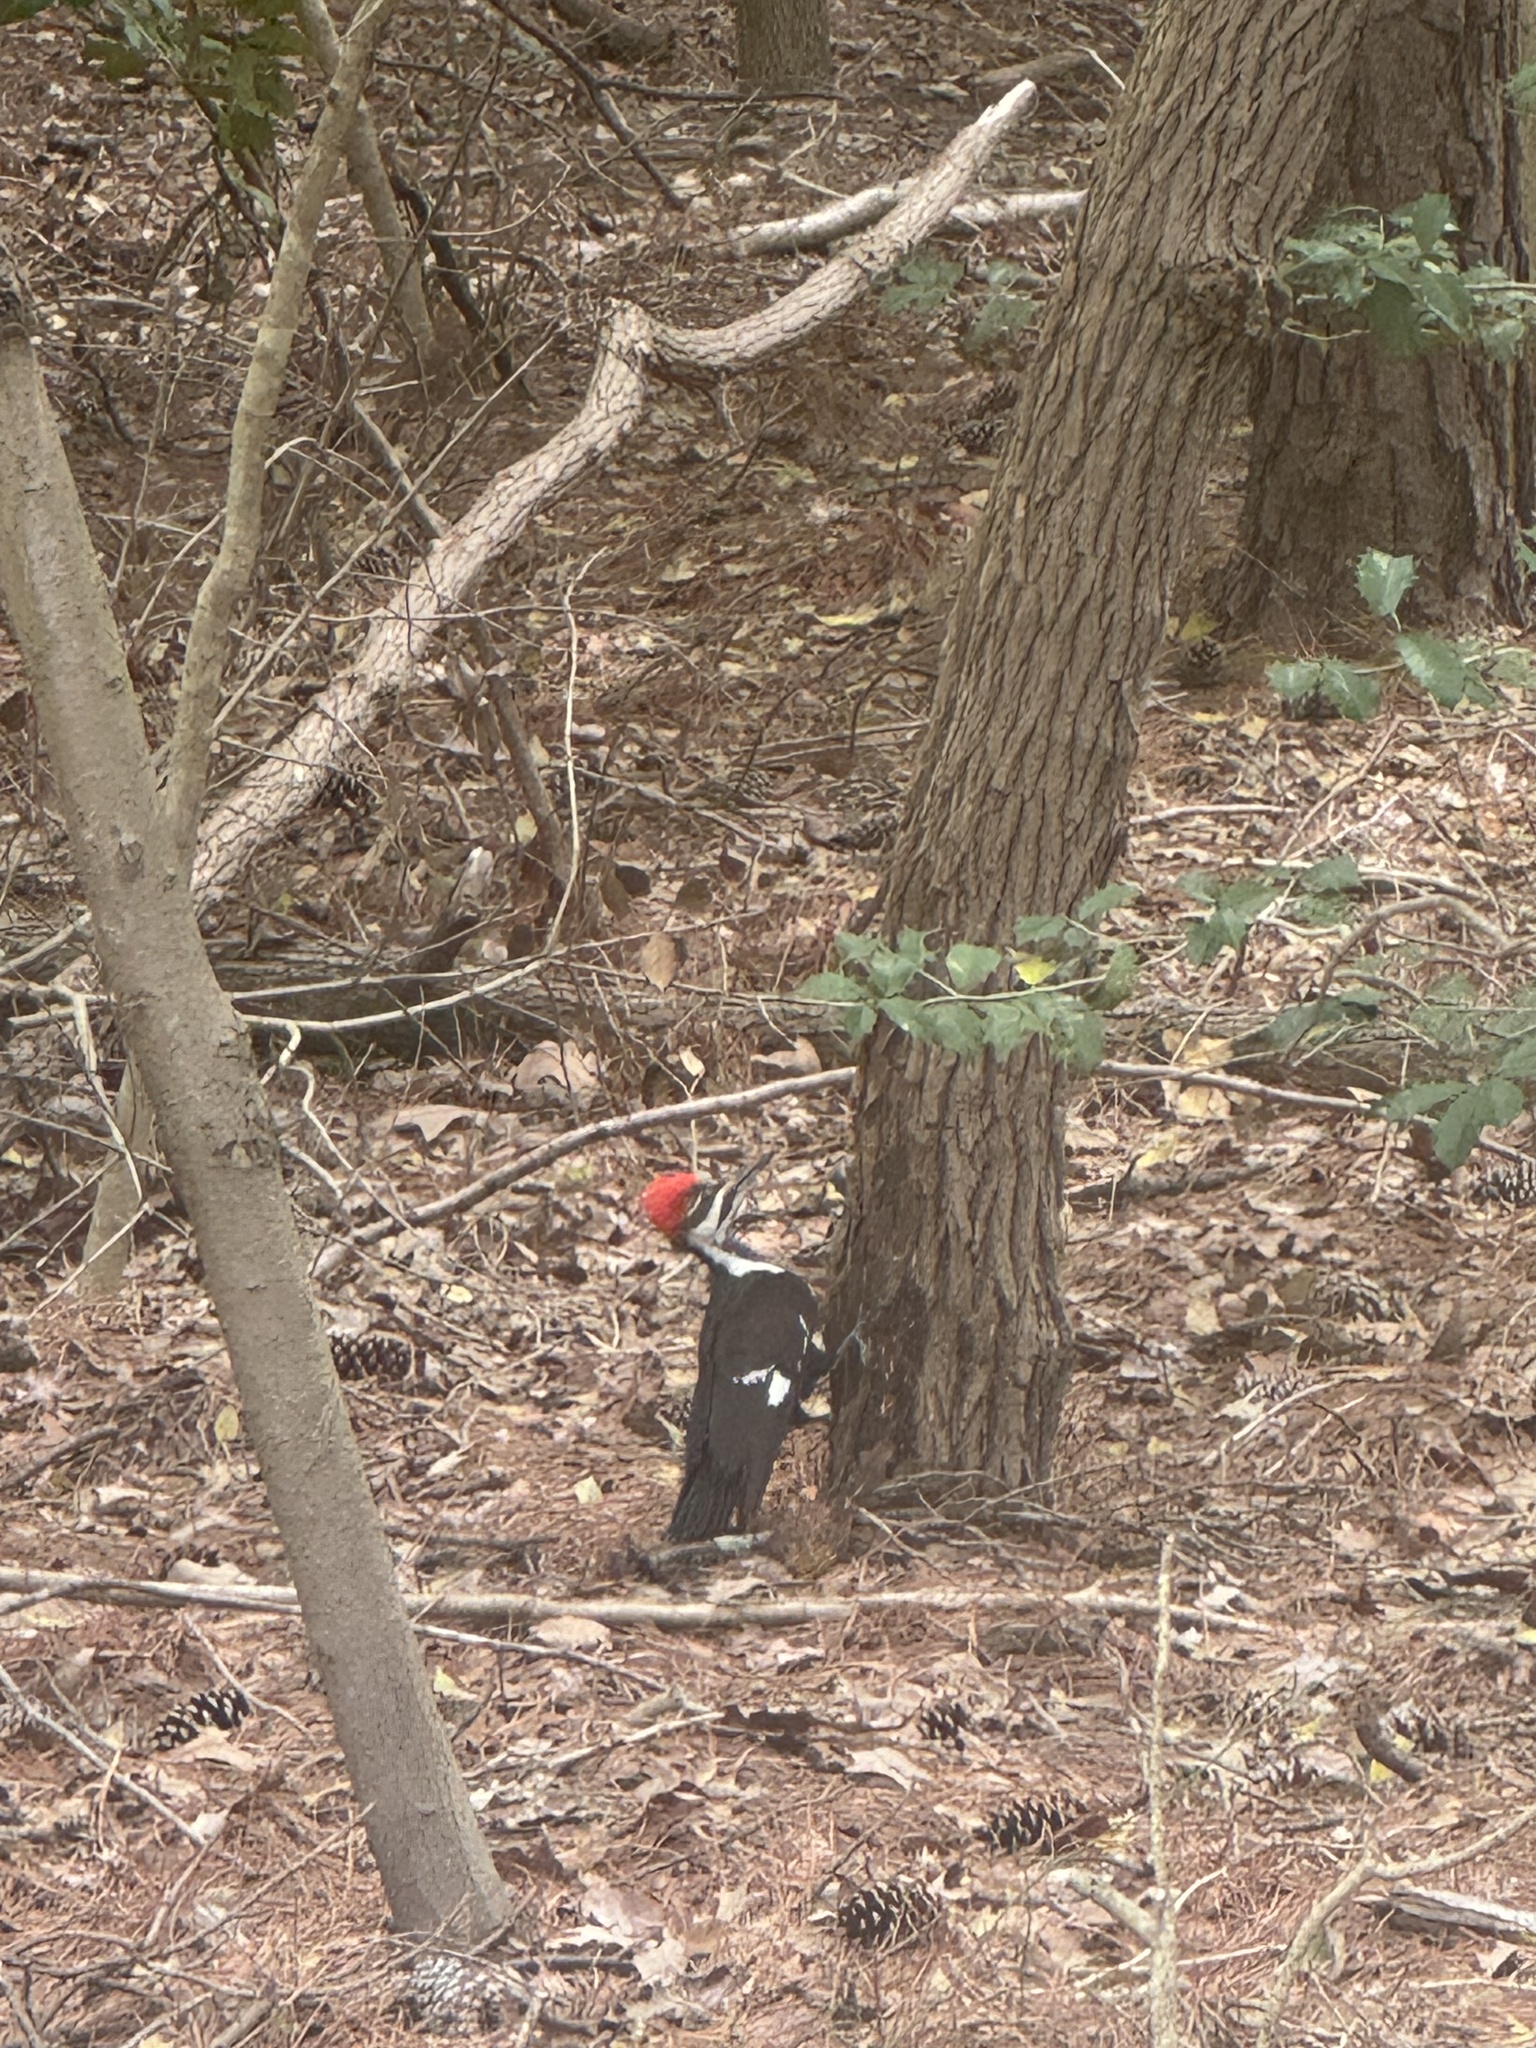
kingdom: Animalia
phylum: Chordata
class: Aves
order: Piciformes
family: Picidae
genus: Dryocopus
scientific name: Dryocopus pileatus
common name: Pileated woodpecker
